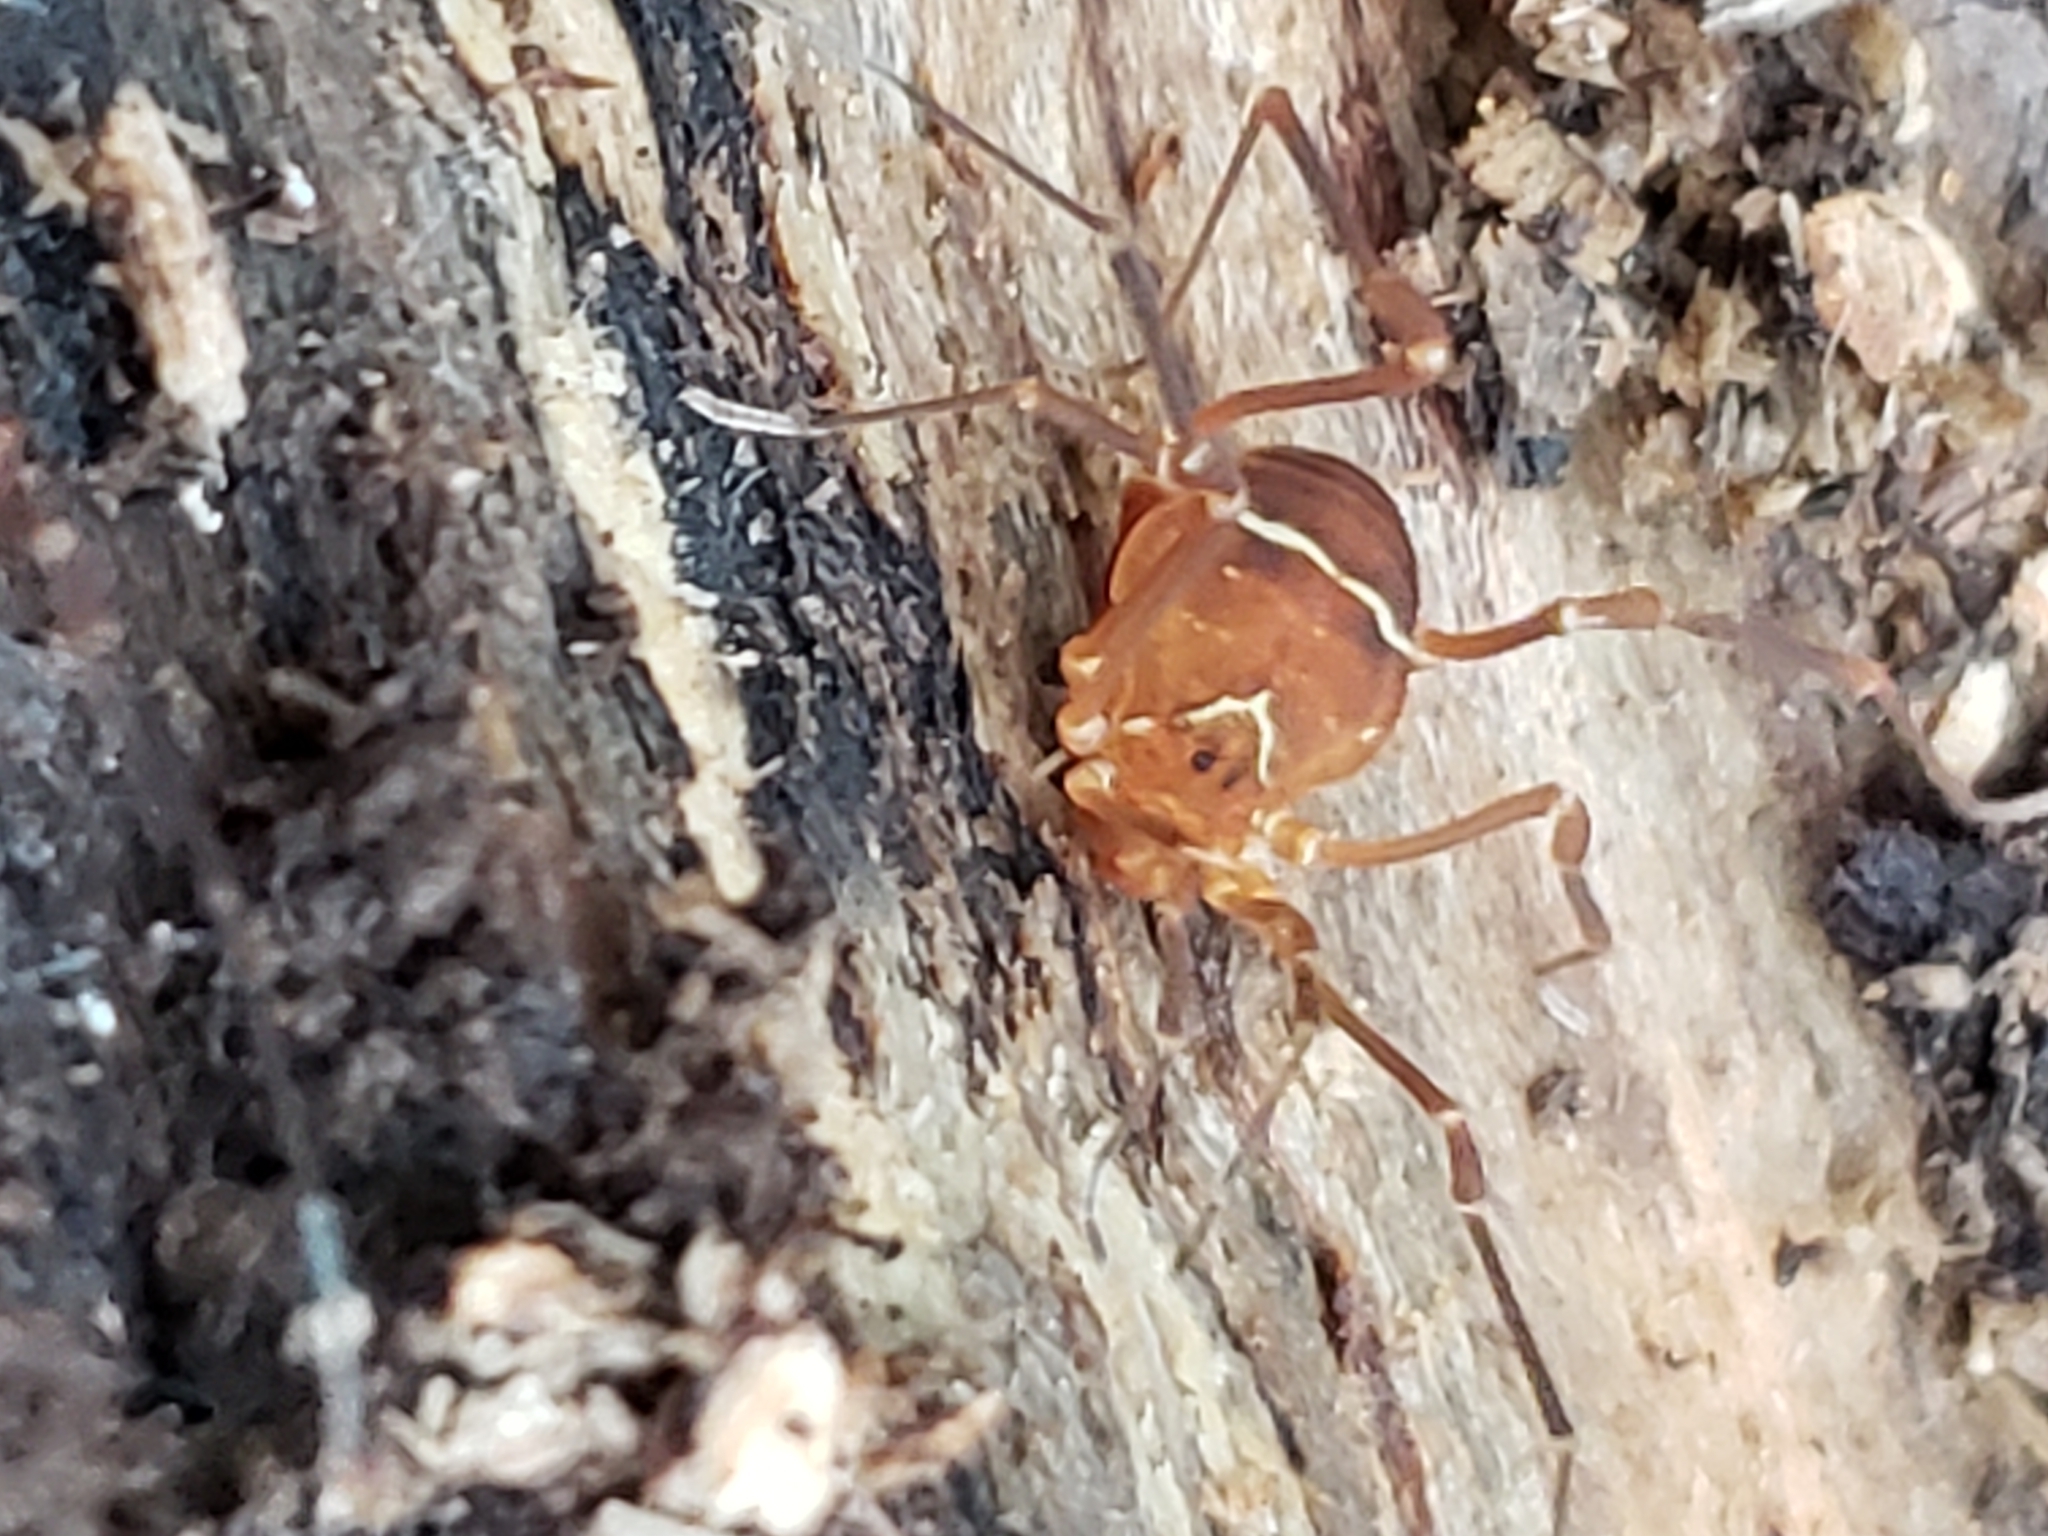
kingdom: Animalia
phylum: Arthropoda
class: Arachnida
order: Opiliones
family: Cosmetidae
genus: Libitioides
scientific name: Libitioides sayi
